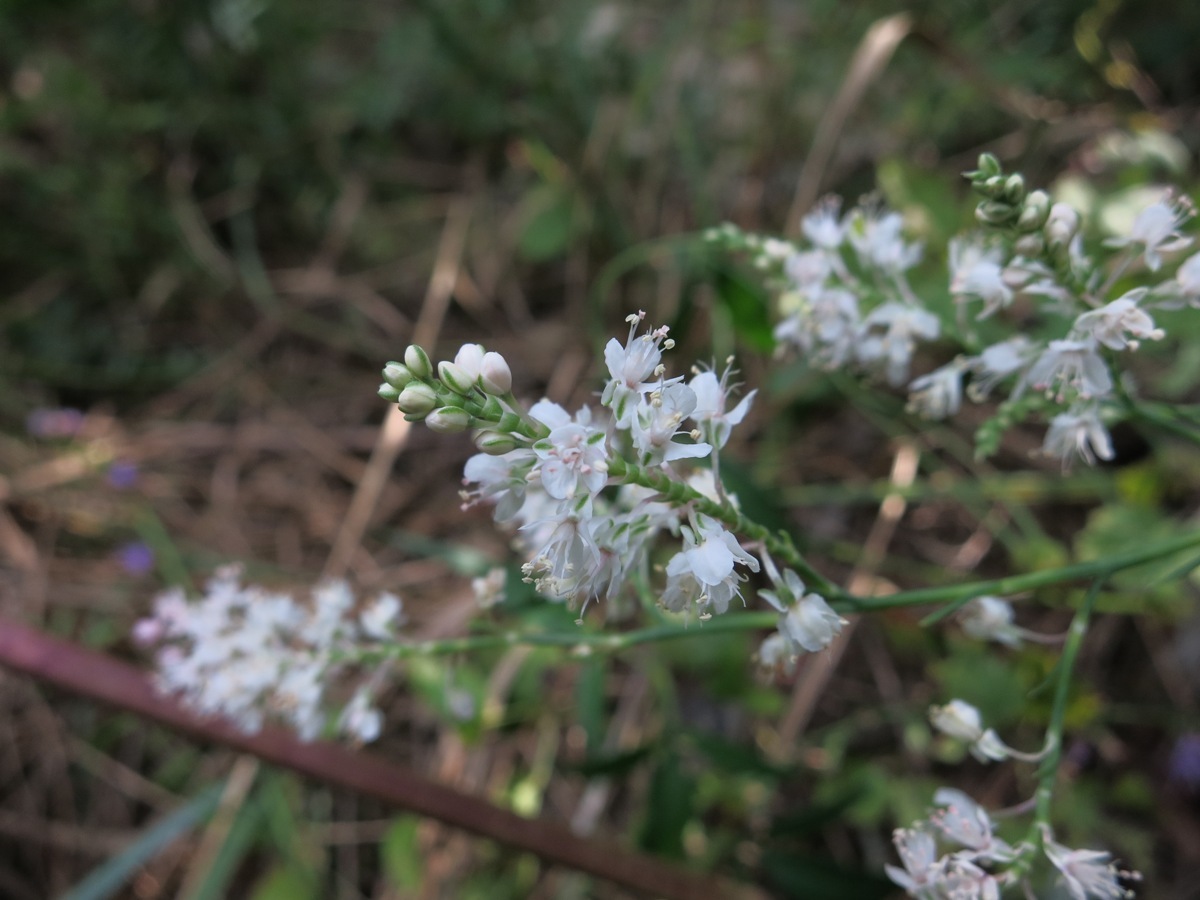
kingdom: Plantae
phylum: Tracheophyta
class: Magnoliopsida
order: Caryophyllales
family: Polygonaceae
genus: Polygonella
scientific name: Polygonella americana
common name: Southern jointweed
